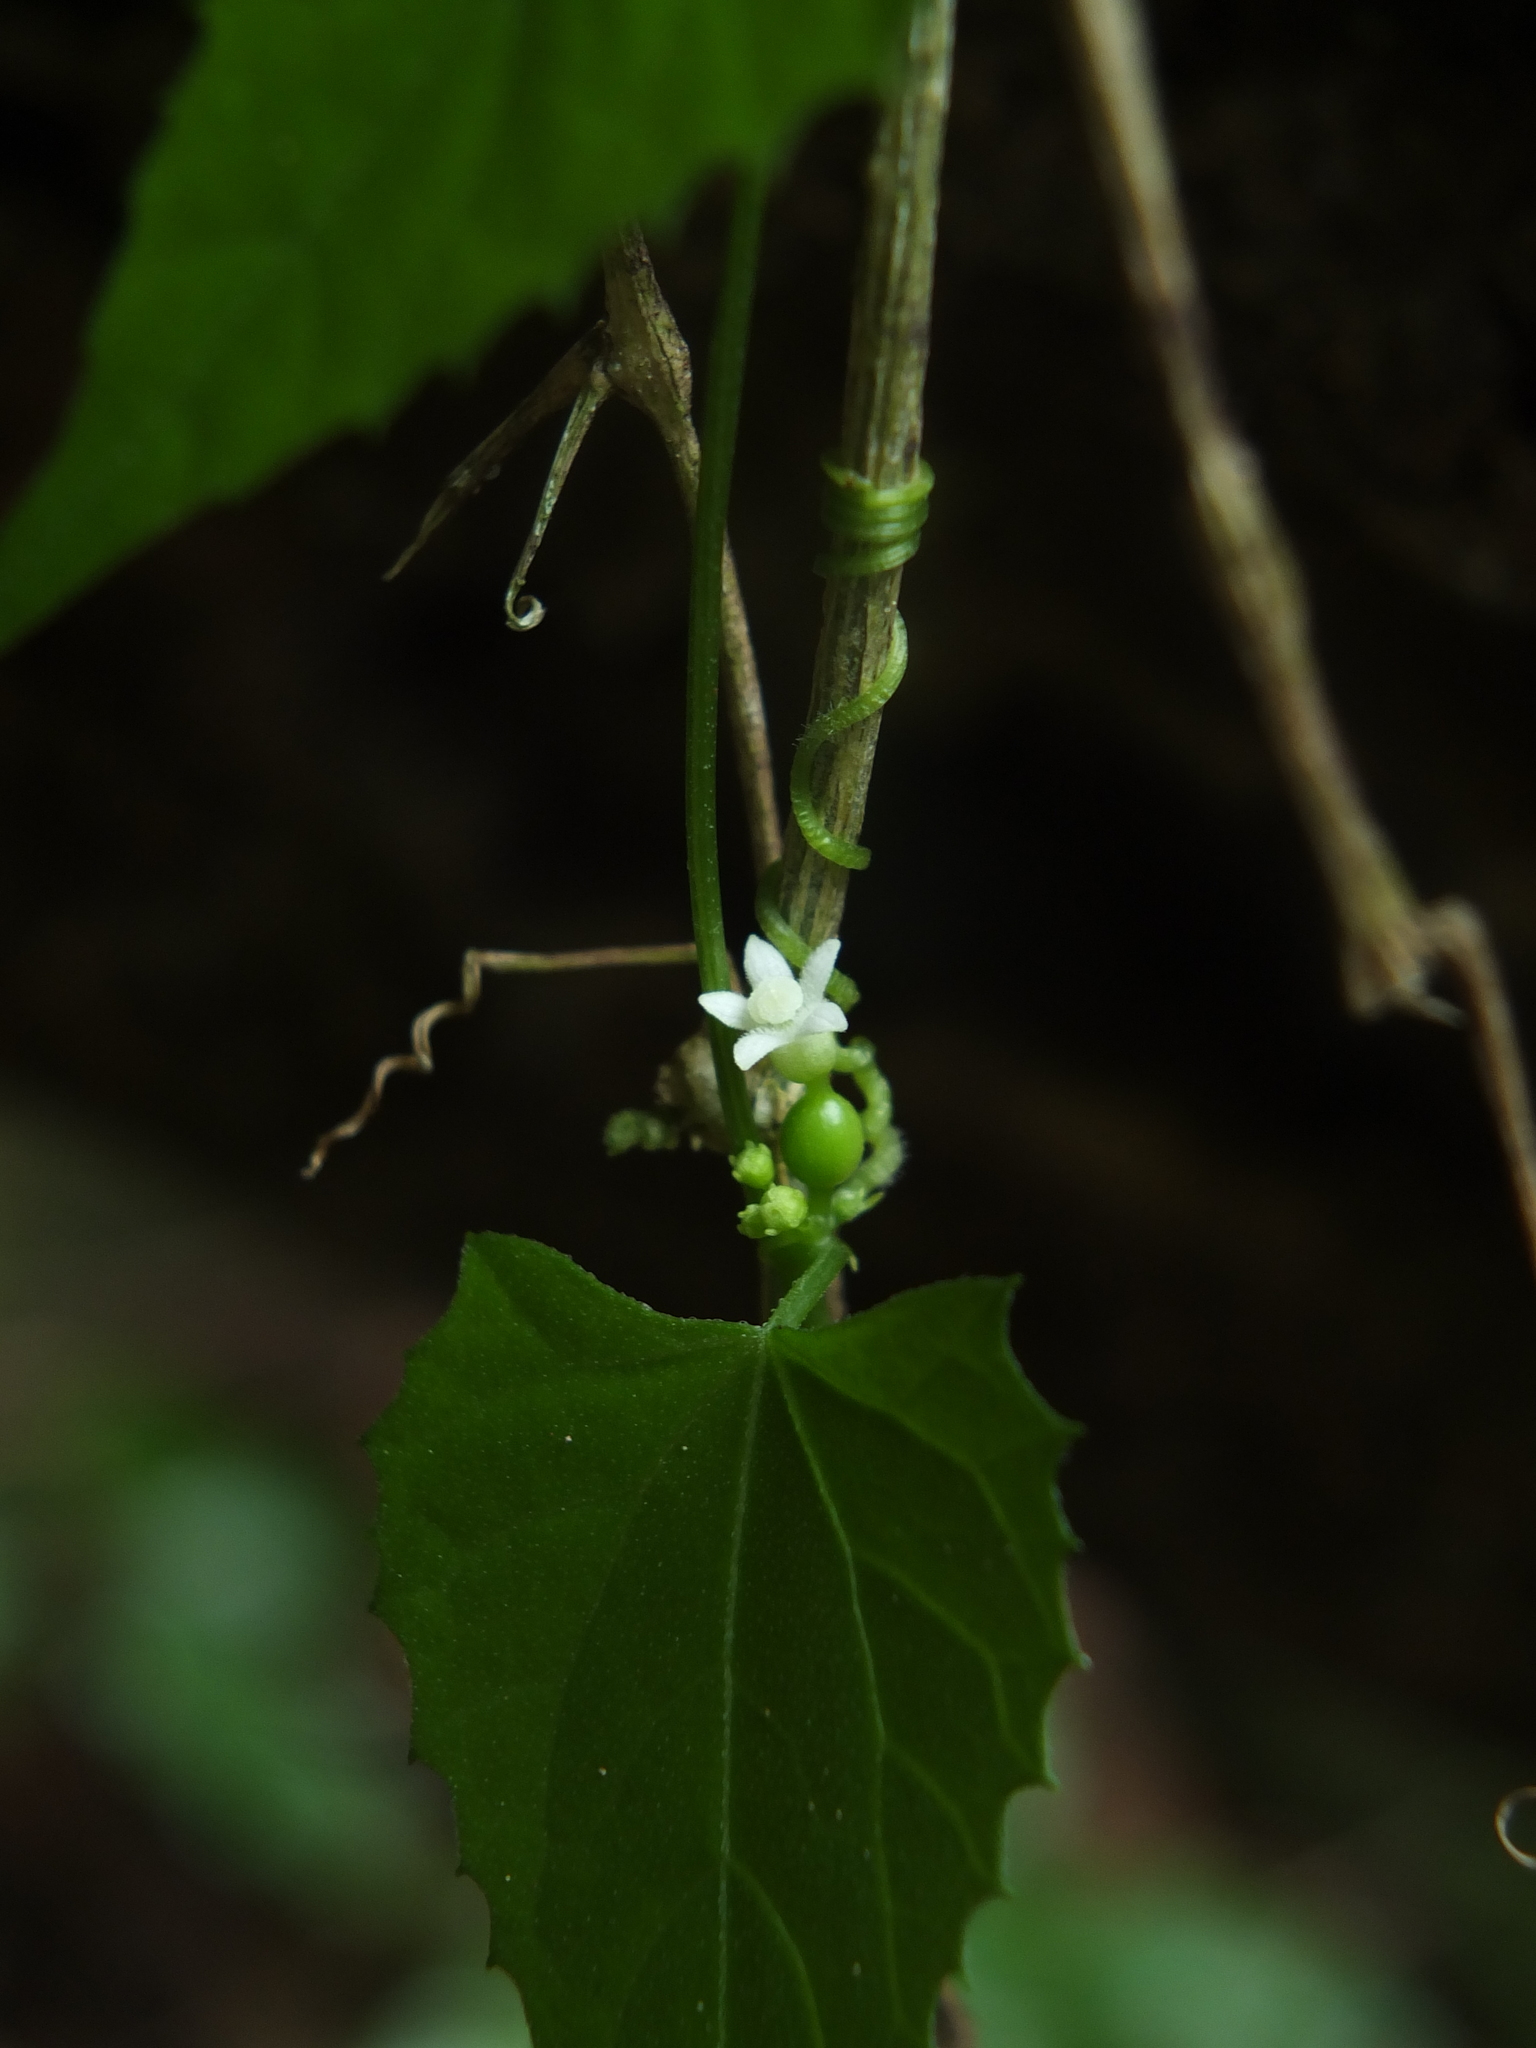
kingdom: Plantae
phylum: Tracheophyta
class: Magnoliopsida
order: Cucurbitales
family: Cucurbitaceae
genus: Zehneria
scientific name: Zehneria scabra
